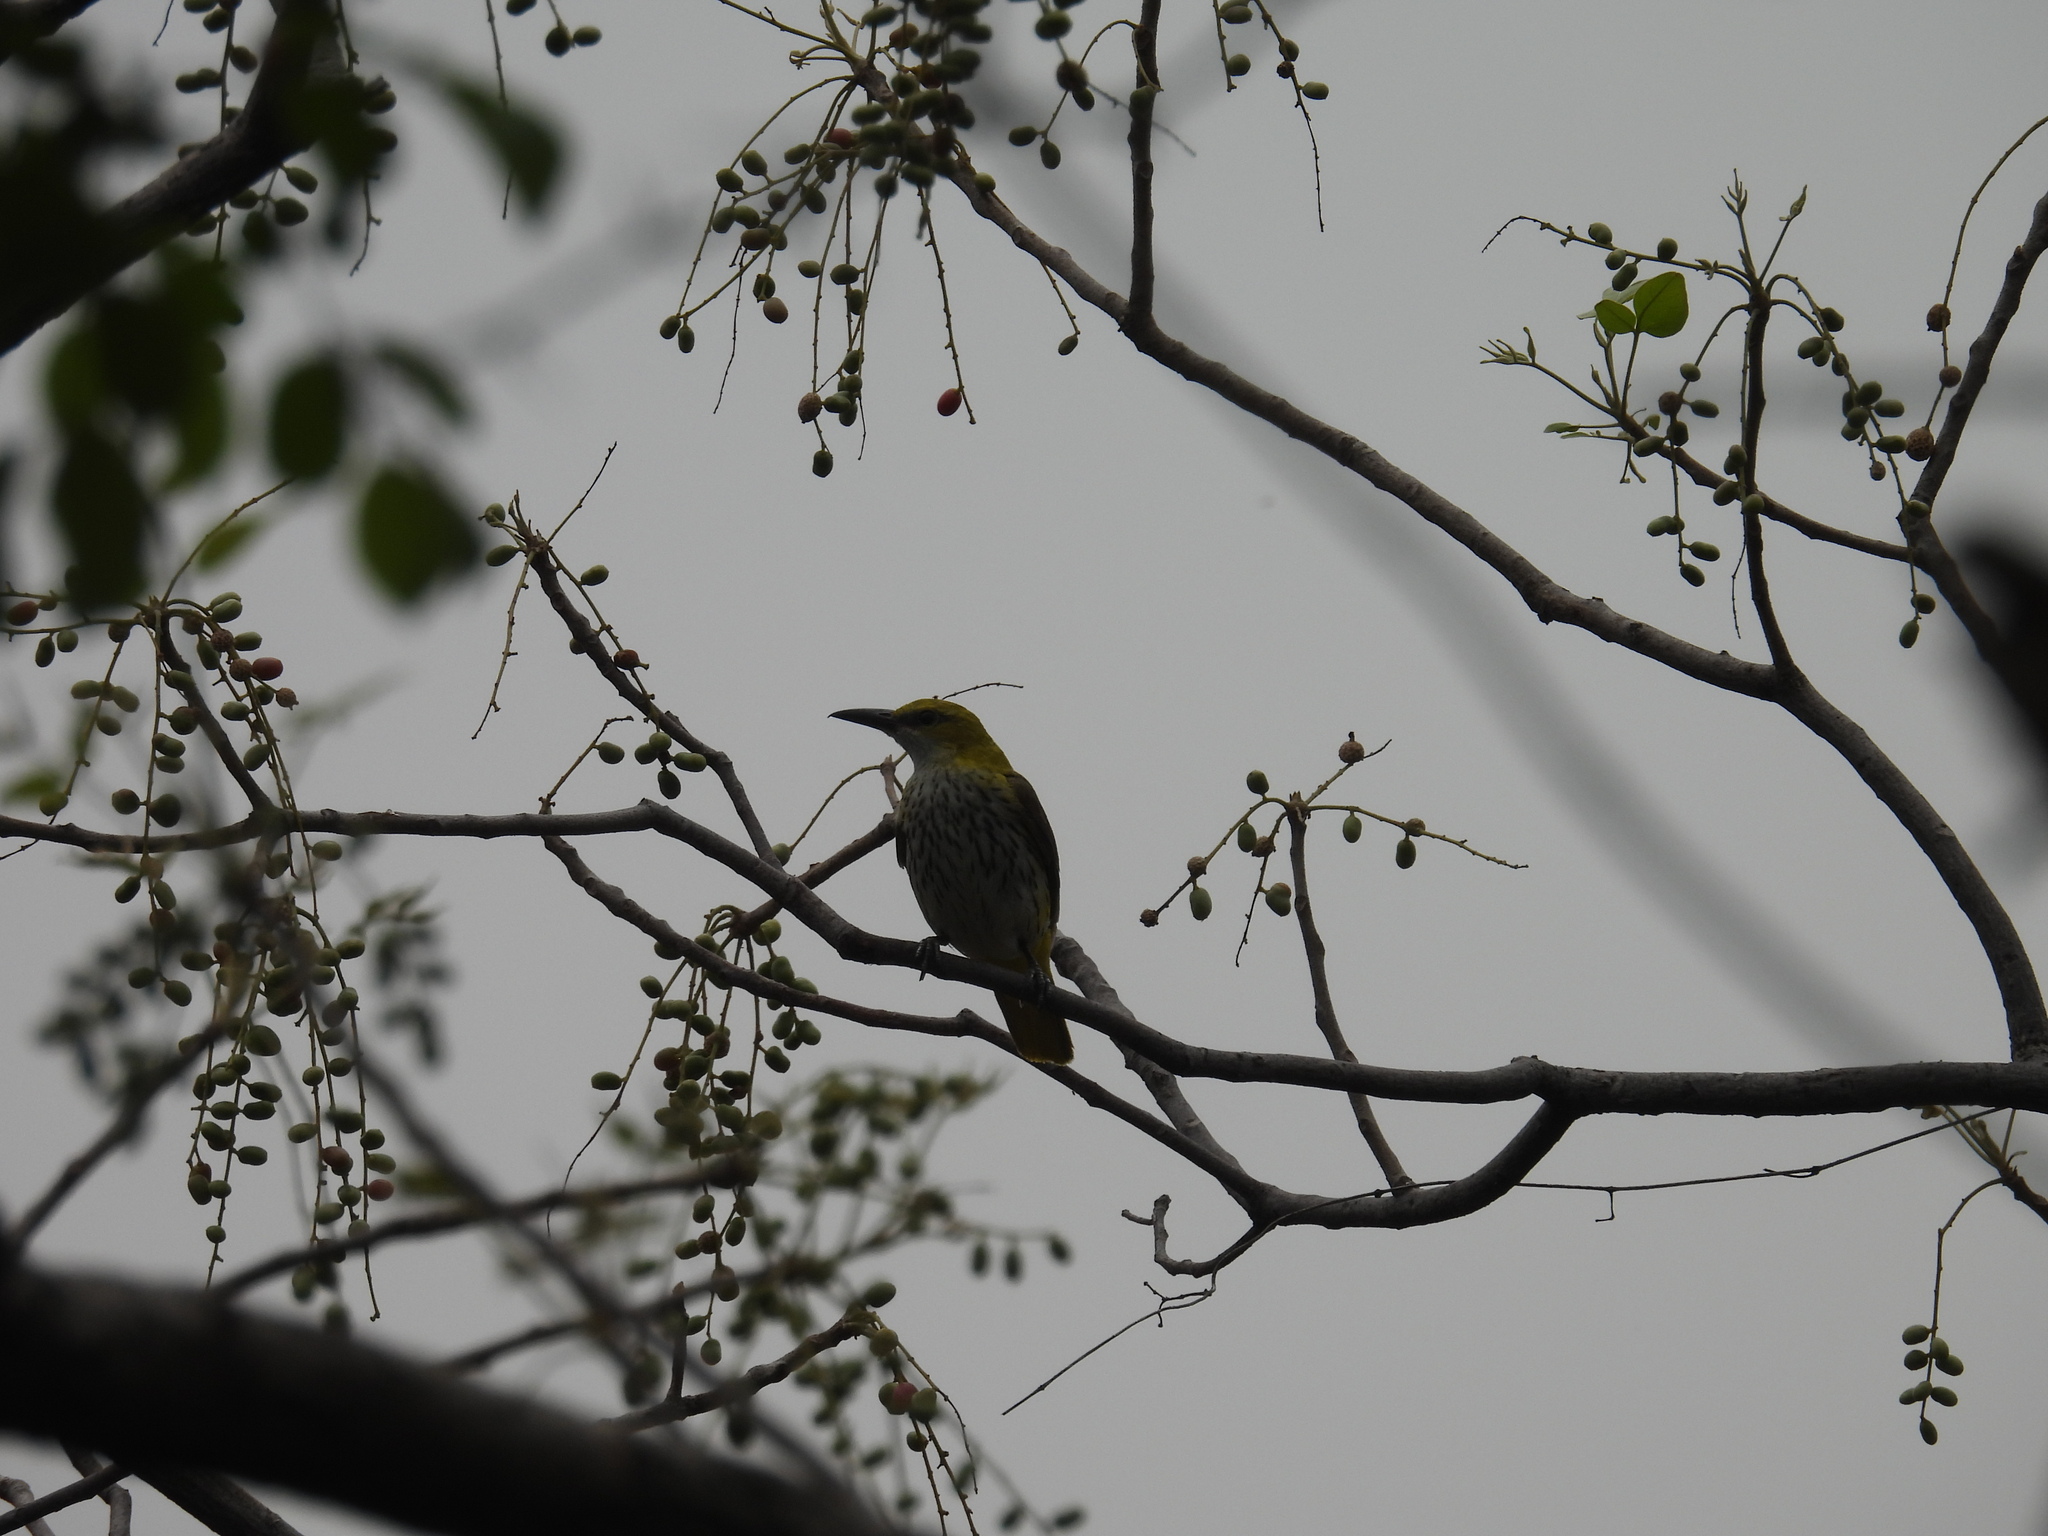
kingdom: Animalia
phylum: Chordata
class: Aves
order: Passeriformes
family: Oriolidae
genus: Oriolus
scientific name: Oriolus kundoo
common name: Indian golden oriole
